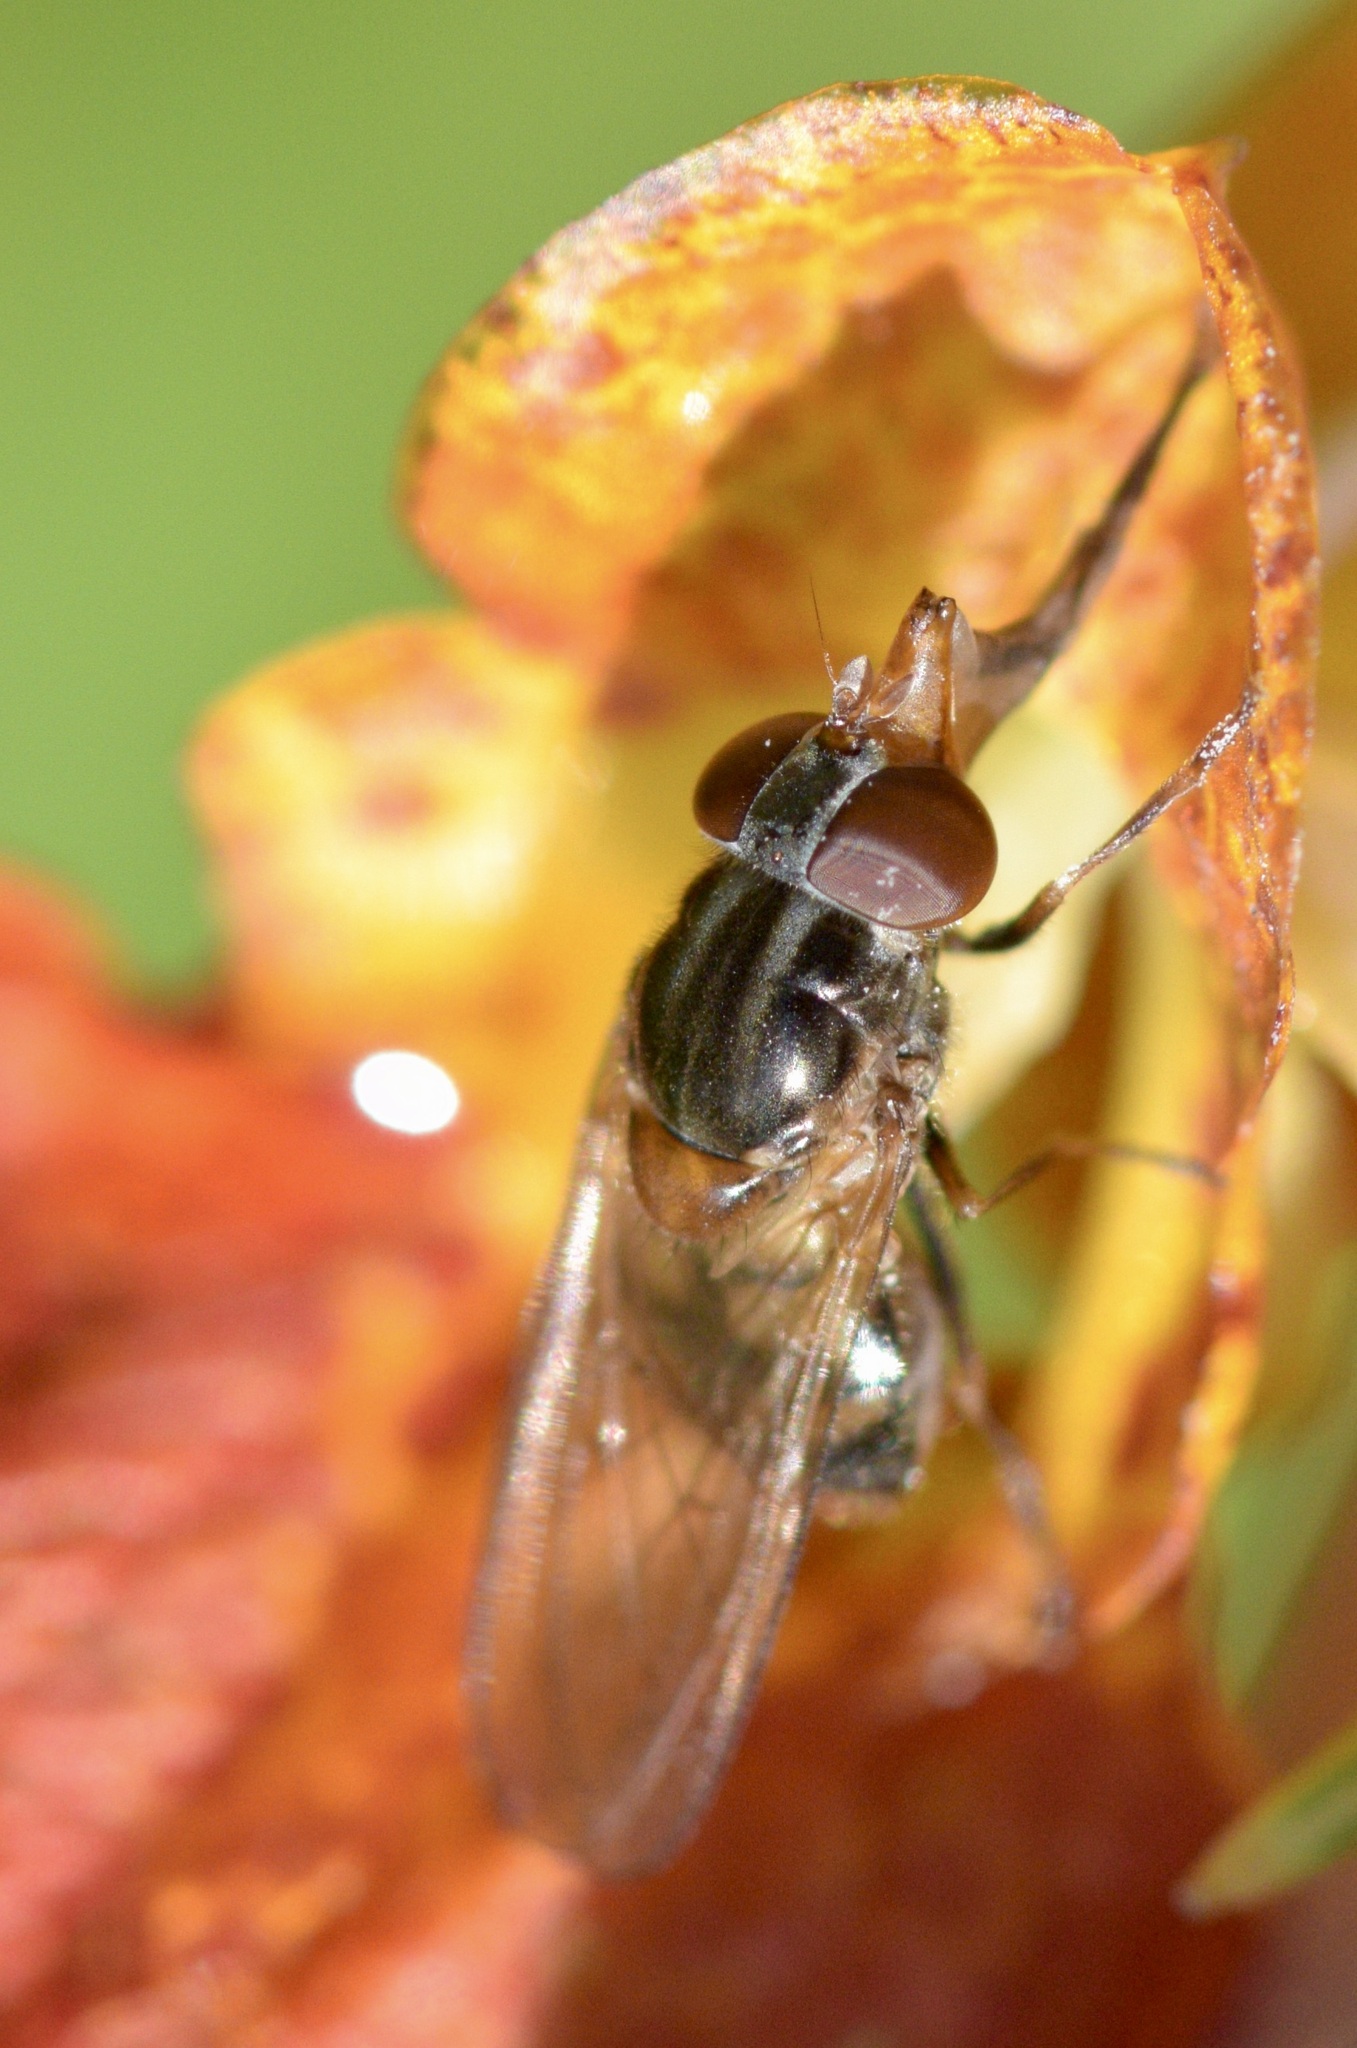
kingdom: Animalia
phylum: Arthropoda
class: Insecta
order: Diptera
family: Syrphidae
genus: Rhingia
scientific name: Rhingia nasica
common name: American snout fly
